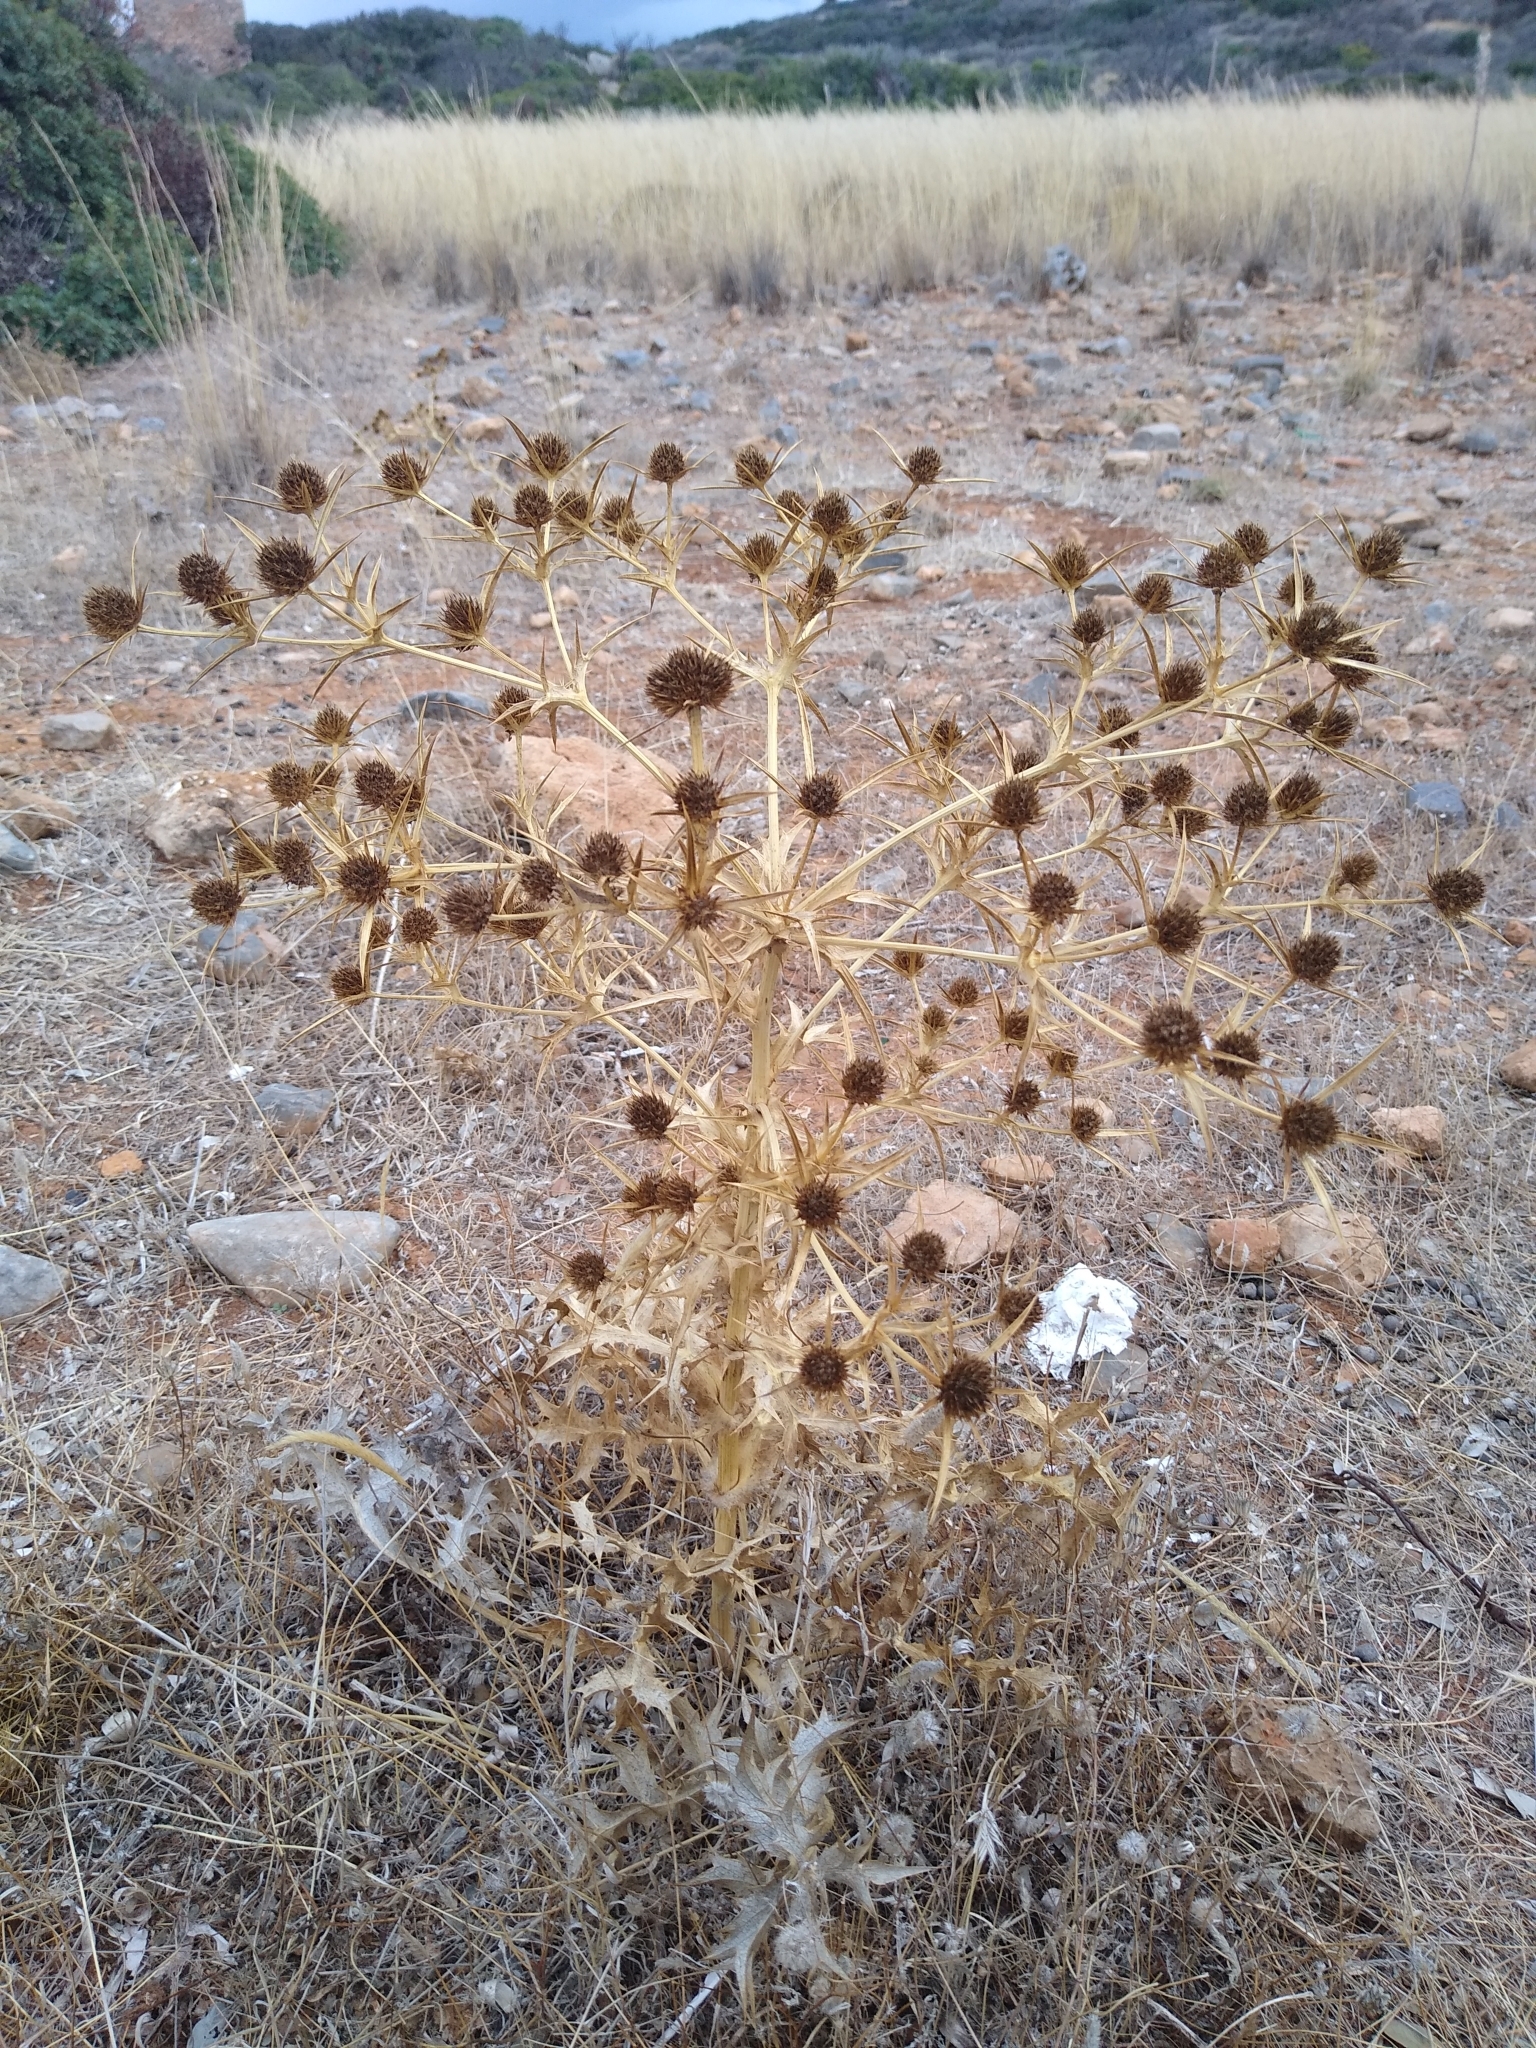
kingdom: Plantae
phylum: Tracheophyta
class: Magnoliopsida
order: Apiales
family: Apiaceae
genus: Eryngium
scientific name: Eryngium campestre
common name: Field eryngo
